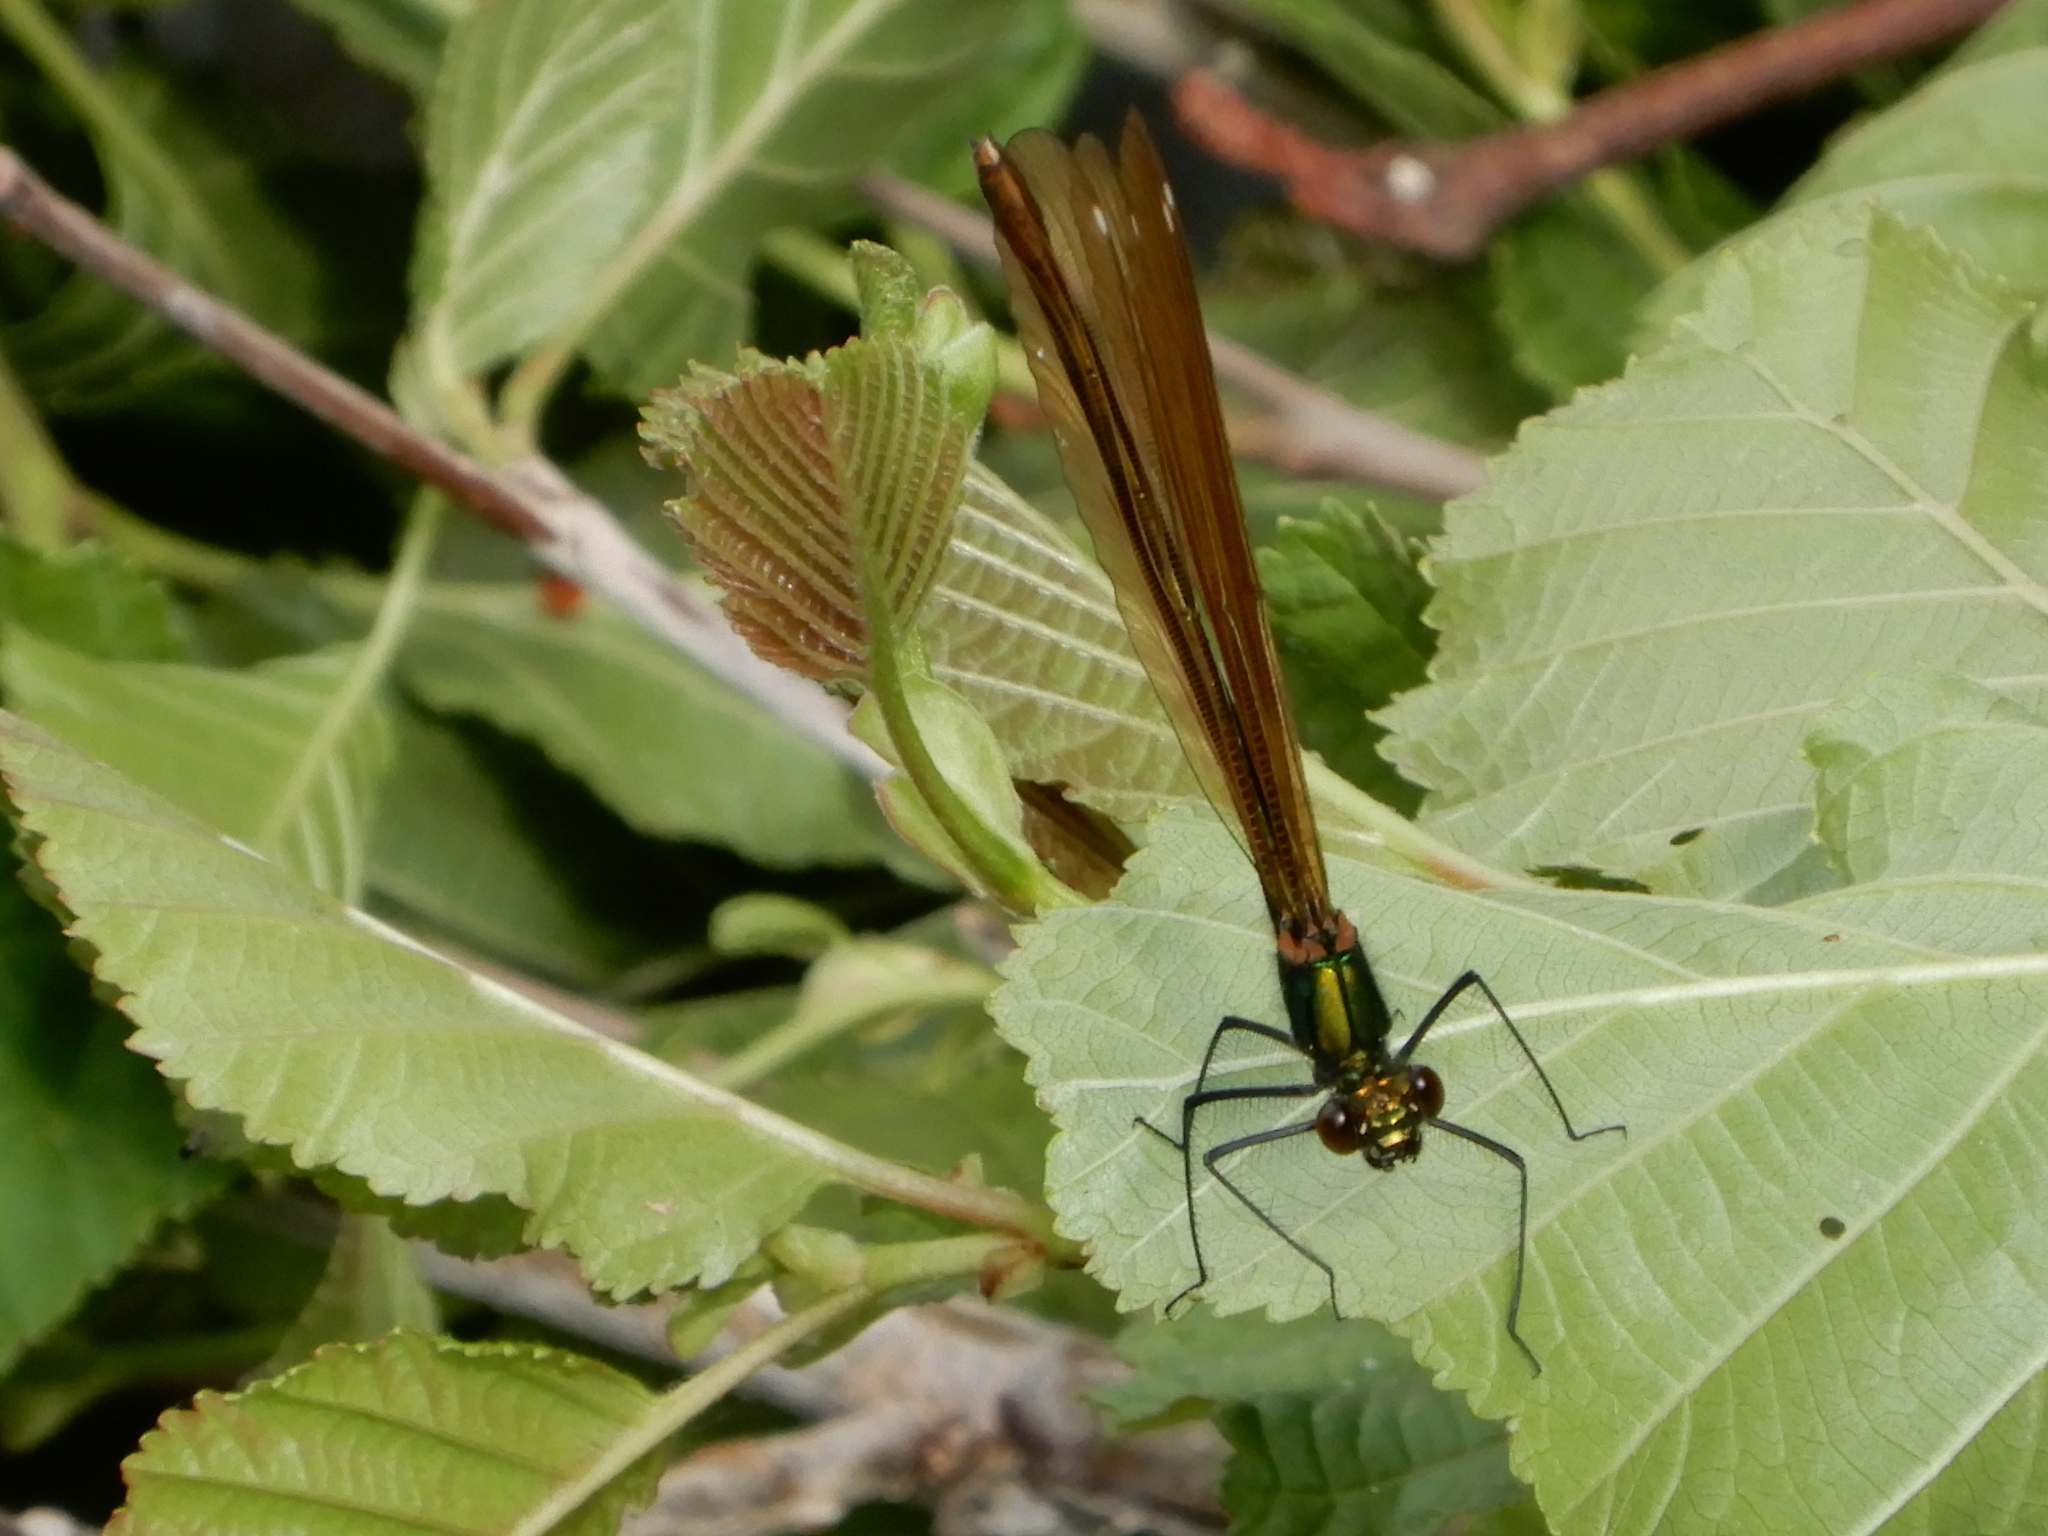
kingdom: Animalia
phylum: Arthropoda
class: Insecta
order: Odonata
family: Calopterygidae
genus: Calopteryx
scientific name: Calopteryx virgo
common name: Beautiful demoiselle
